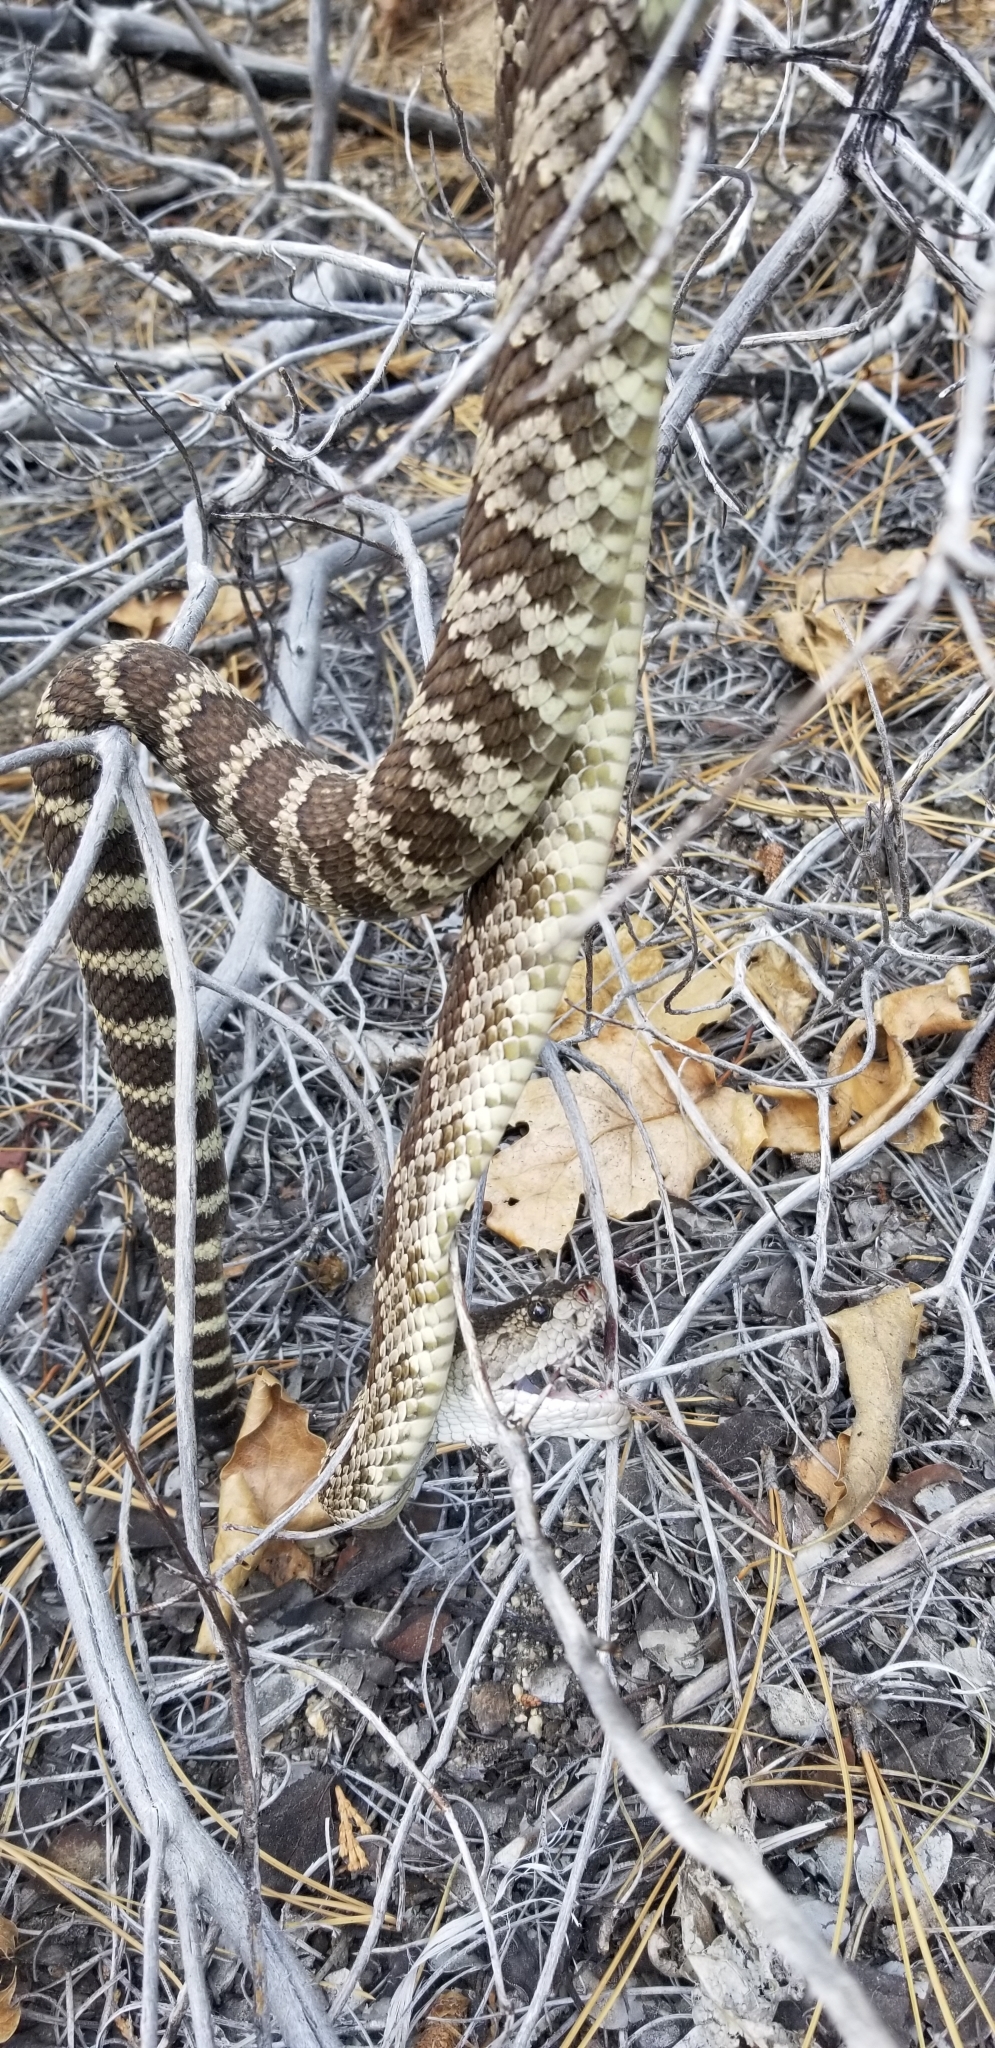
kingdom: Animalia
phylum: Chordata
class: Squamata
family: Viperidae
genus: Crotalus
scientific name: Crotalus oreganus
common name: Abyssus
